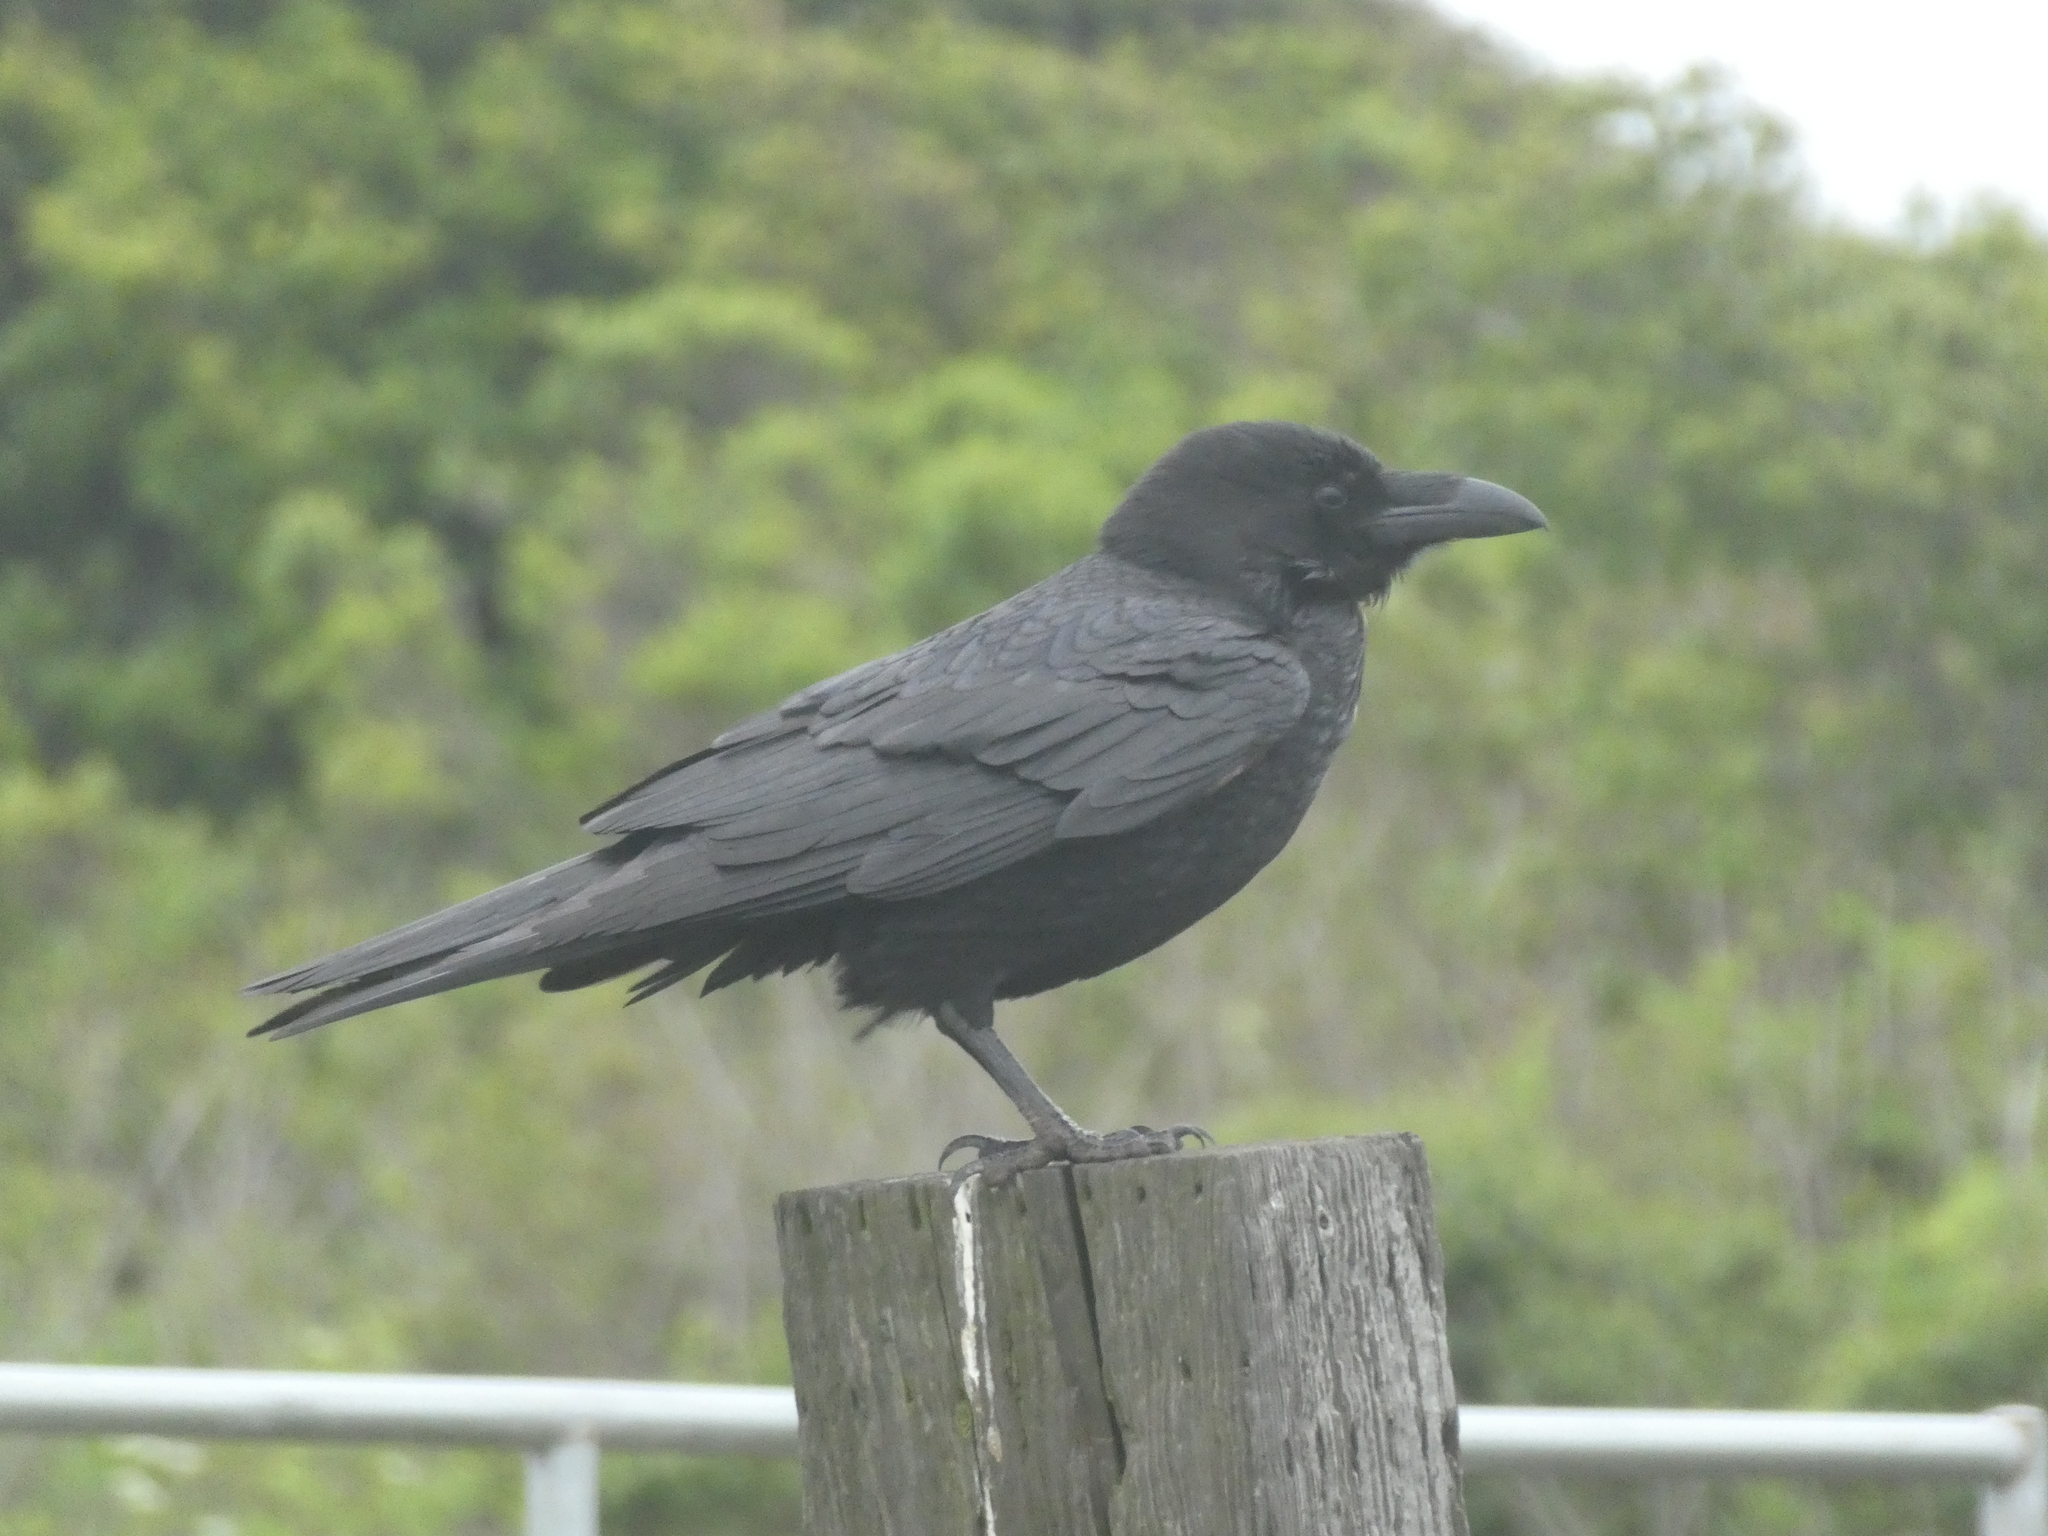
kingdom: Animalia
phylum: Chordata
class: Aves
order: Passeriformes
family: Corvidae
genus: Corvus
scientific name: Corvus corax
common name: Common raven
